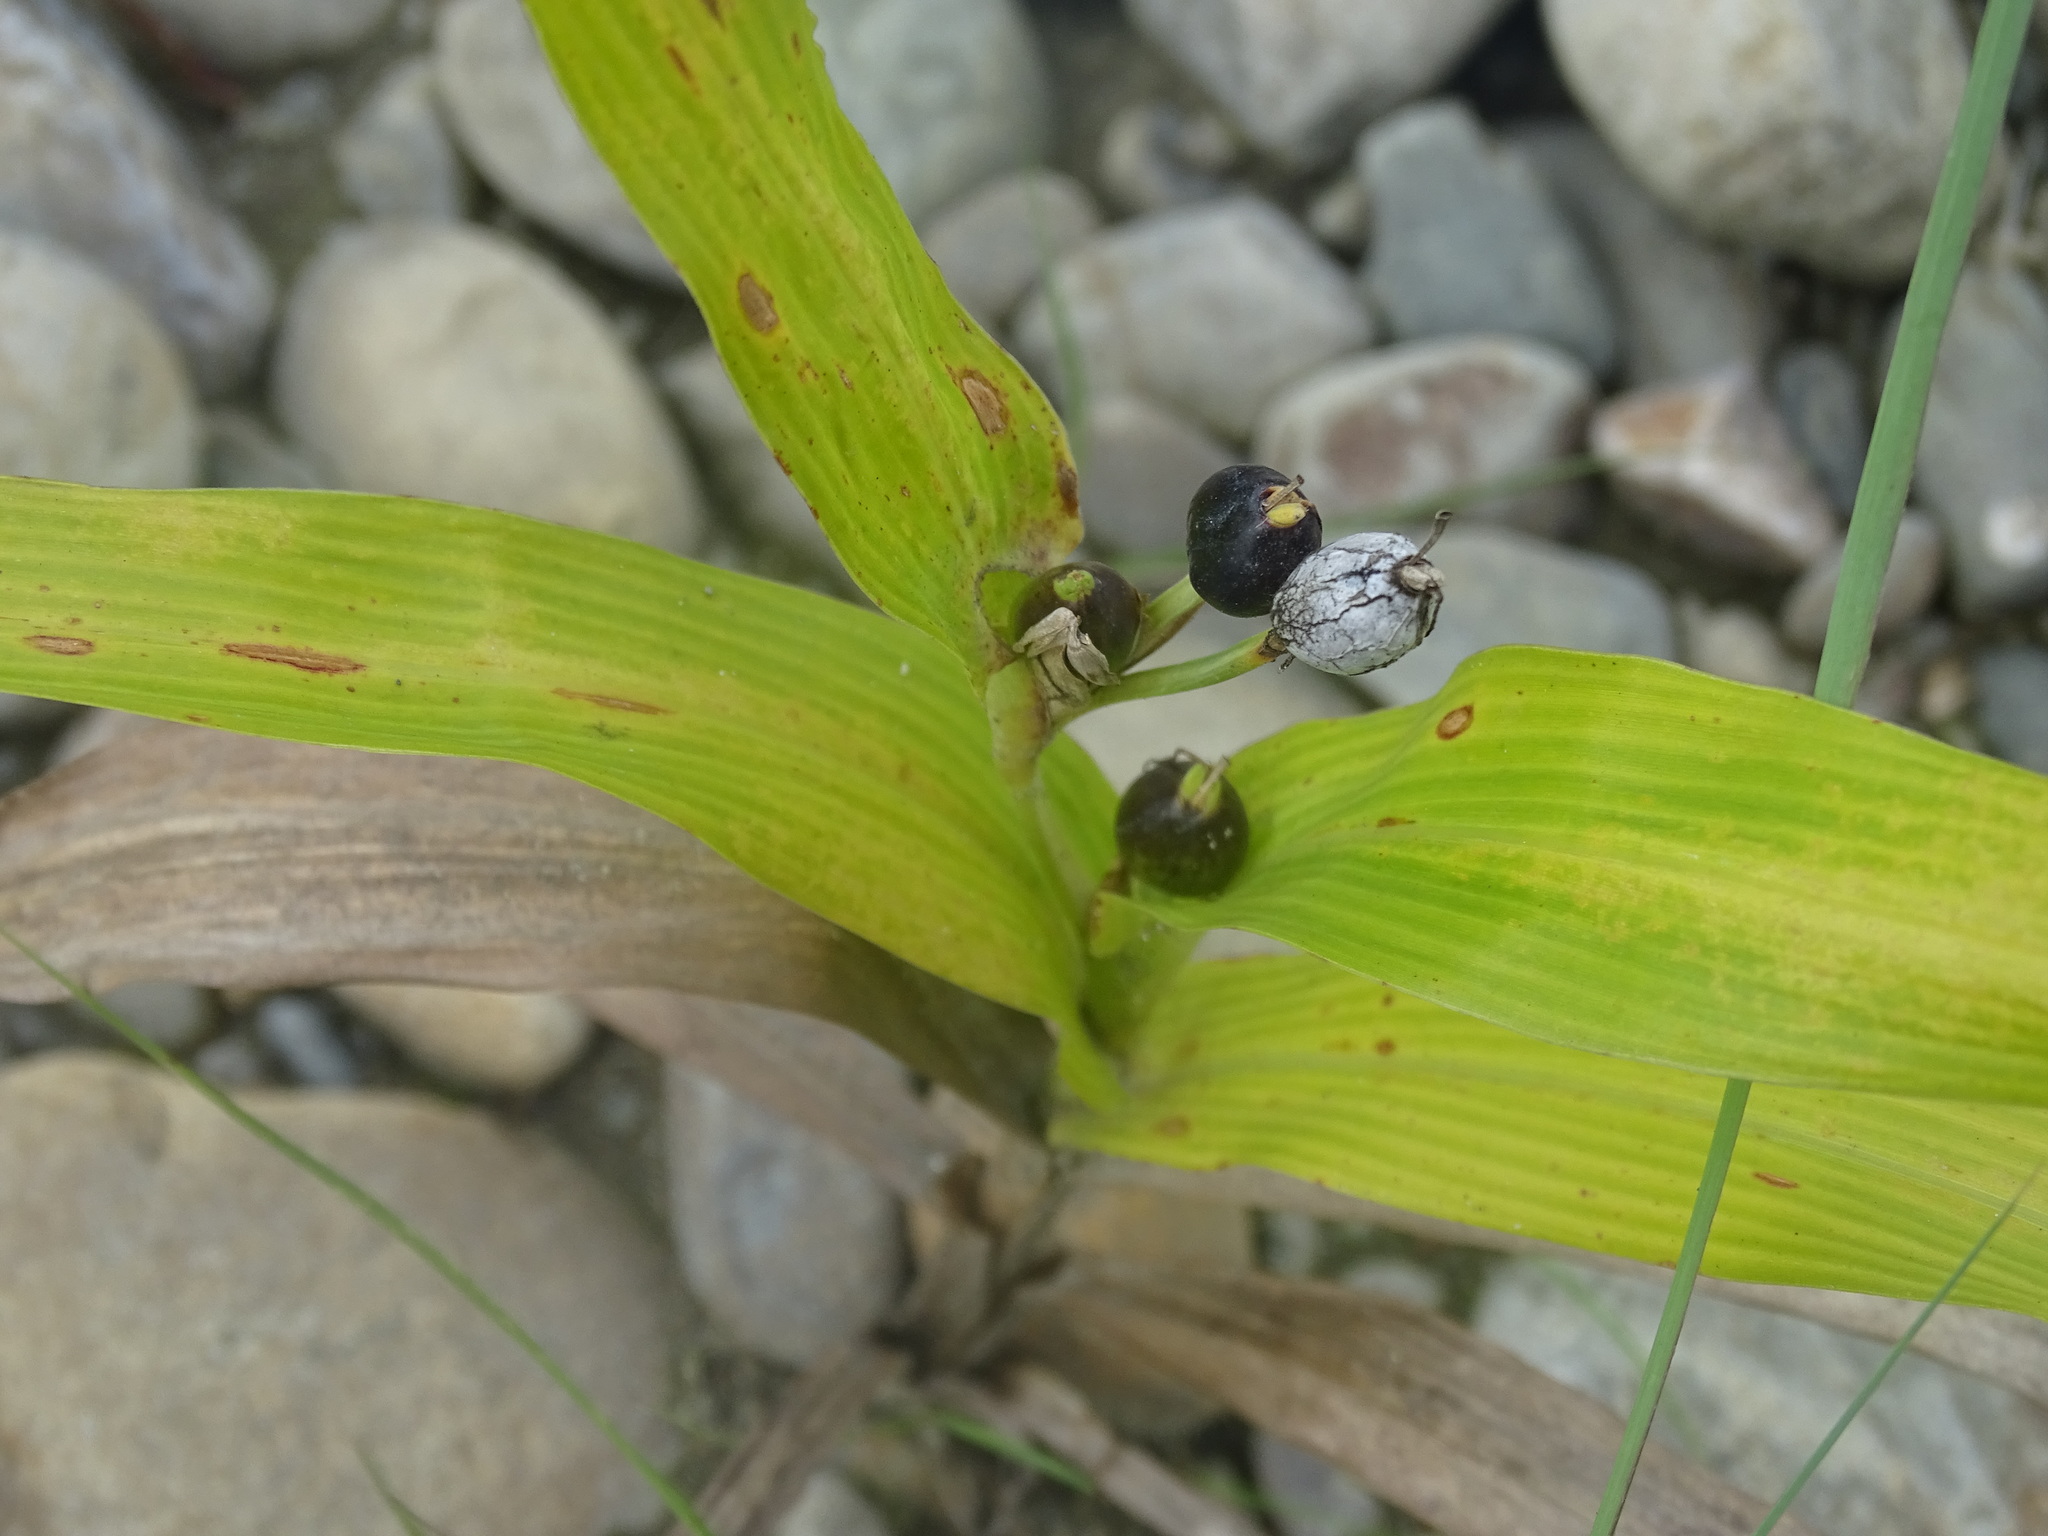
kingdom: Plantae
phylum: Tracheophyta
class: Liliopsida
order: Poales
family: Poaceae
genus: Coix
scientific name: Coix lacryma-jobi
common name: Job's tears
